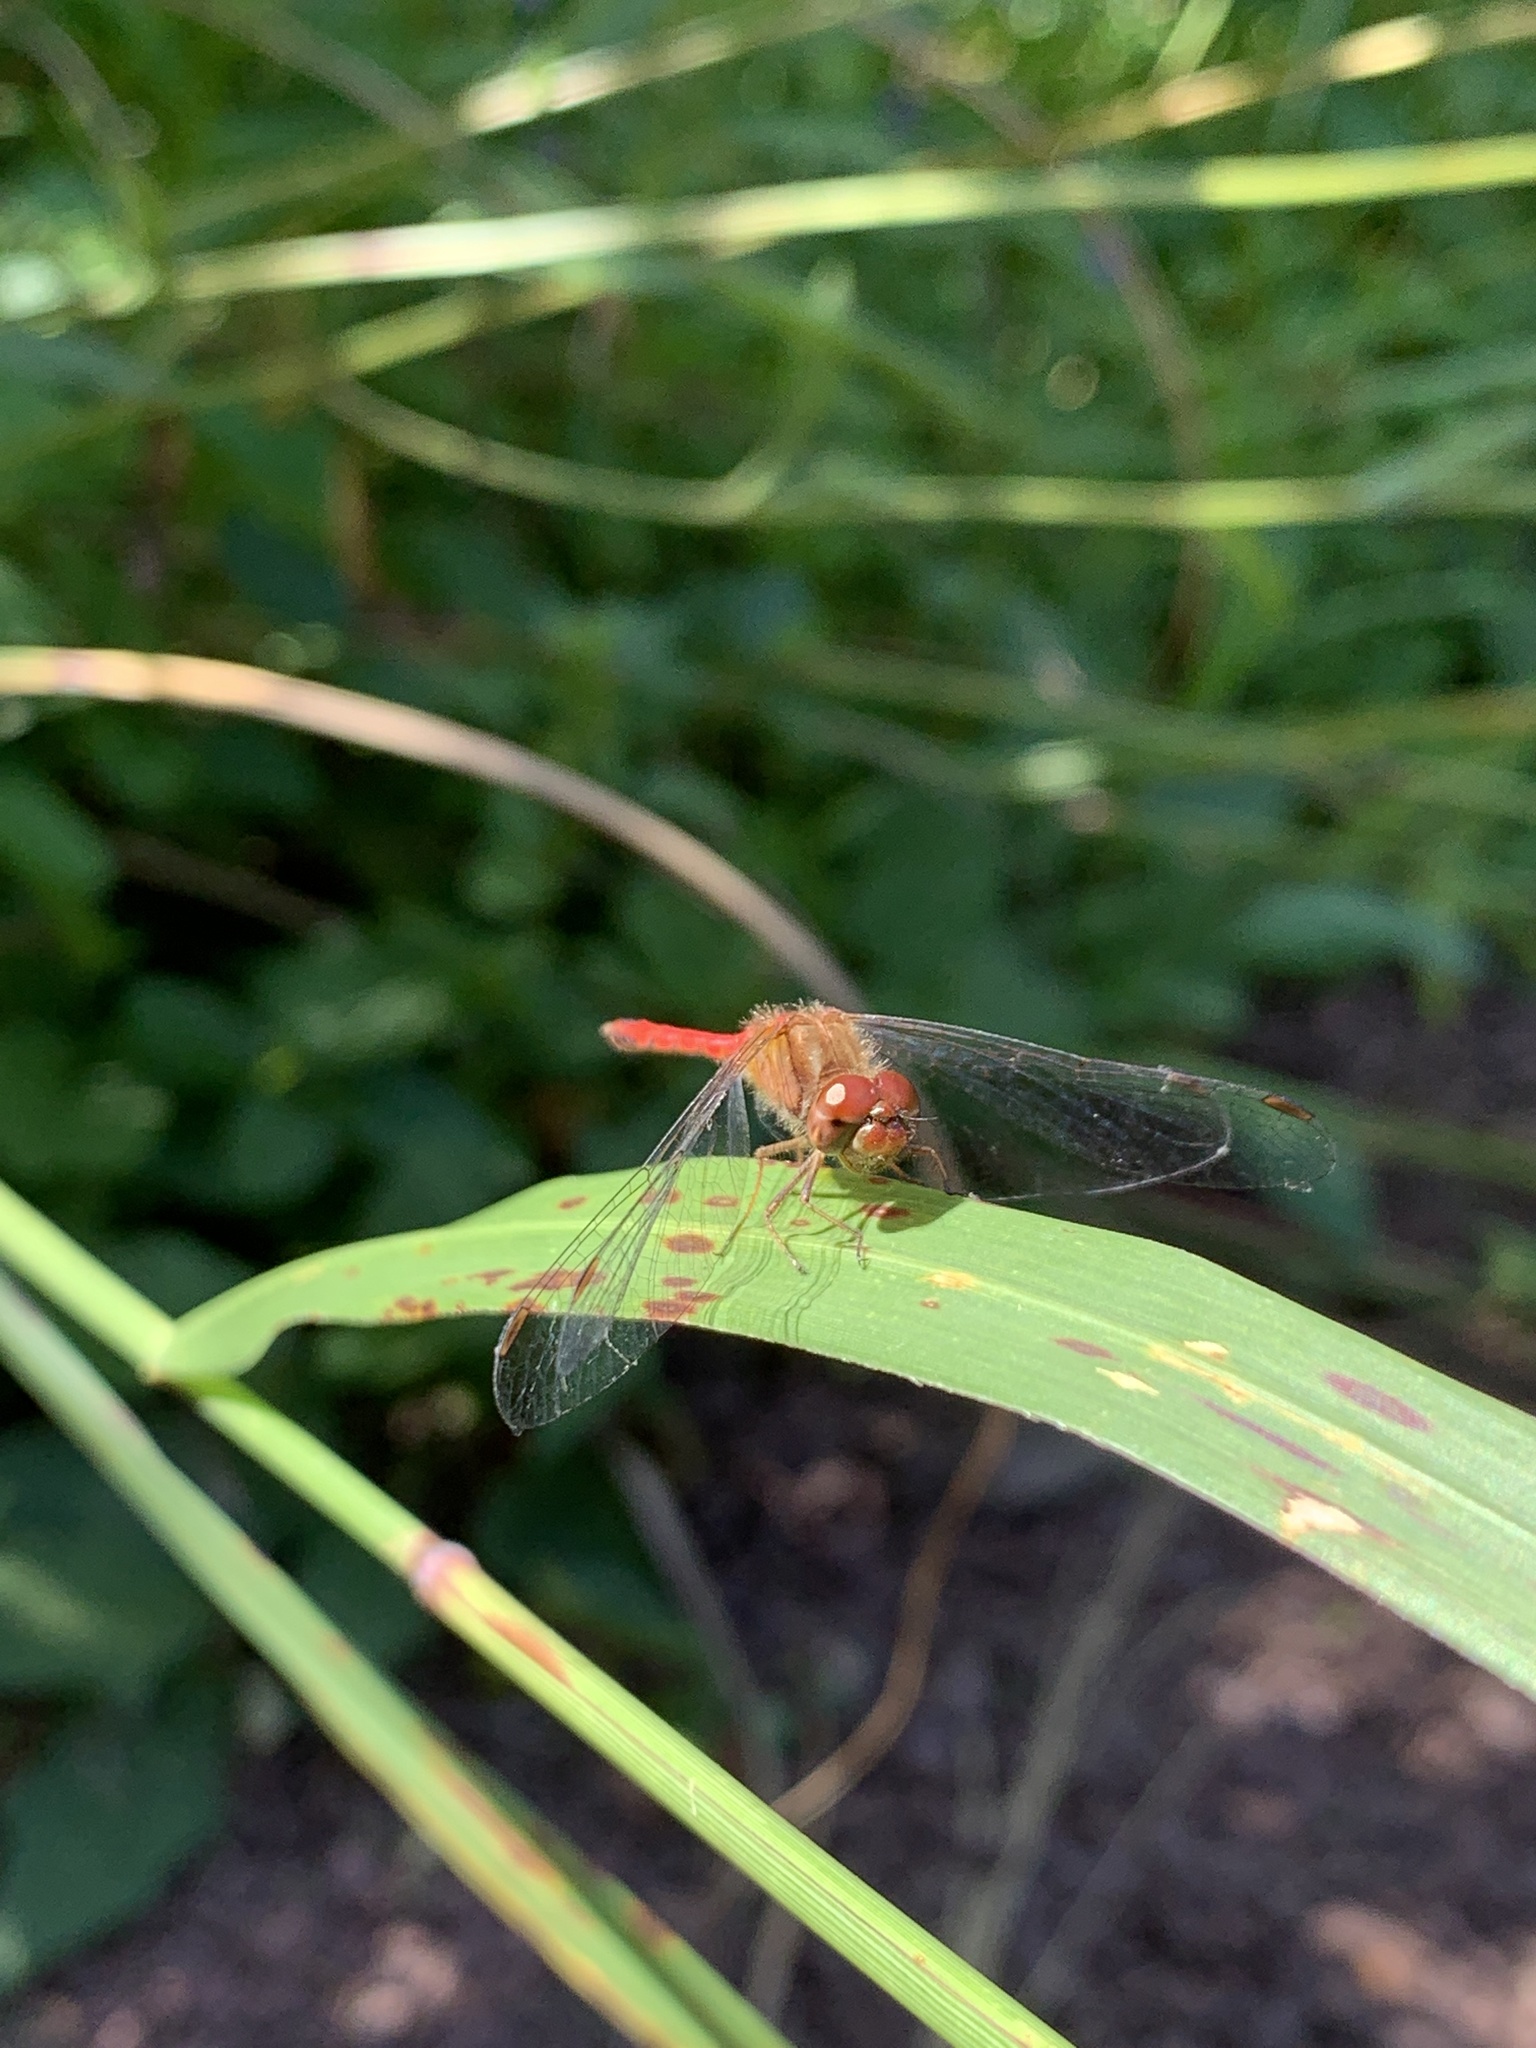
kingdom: Animalia
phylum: Arthropoda
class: Insecta
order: Odonata
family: Libellulidae
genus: Sympetrum
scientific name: Sympetrum vicinum
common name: Autumn meadowhawk
